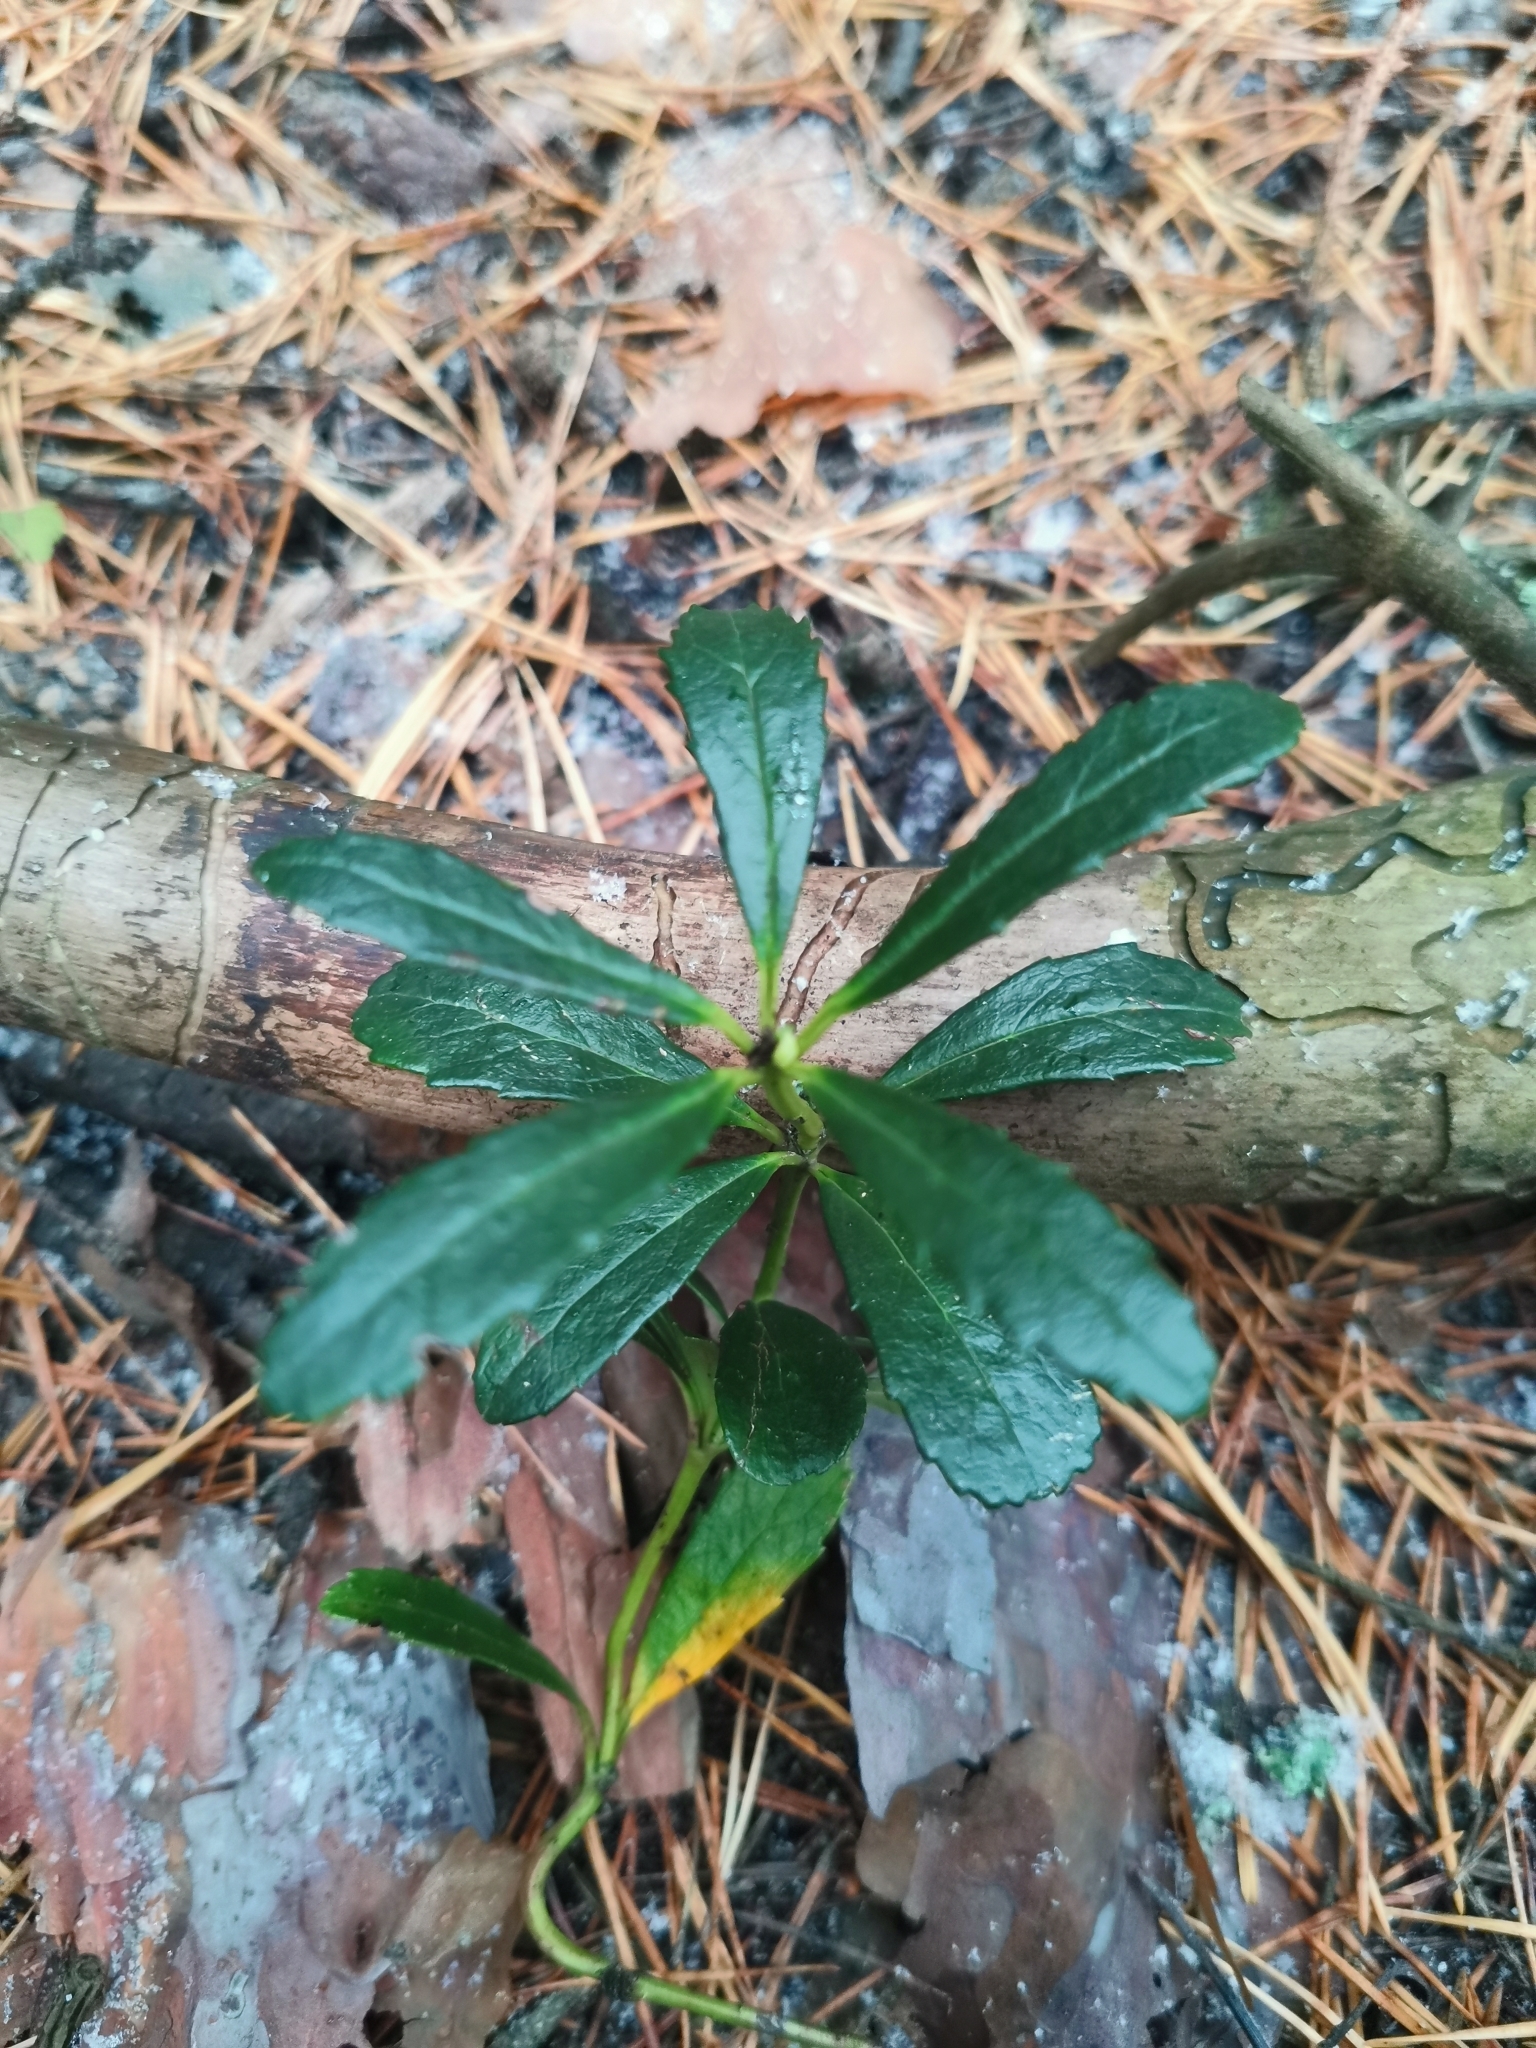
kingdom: Plantae
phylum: Tracheophyta
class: Magnoliopsida
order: Ericales
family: Ericaceae
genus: Chimaphila
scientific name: Chimaphila umbellata
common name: Pipsissewa
